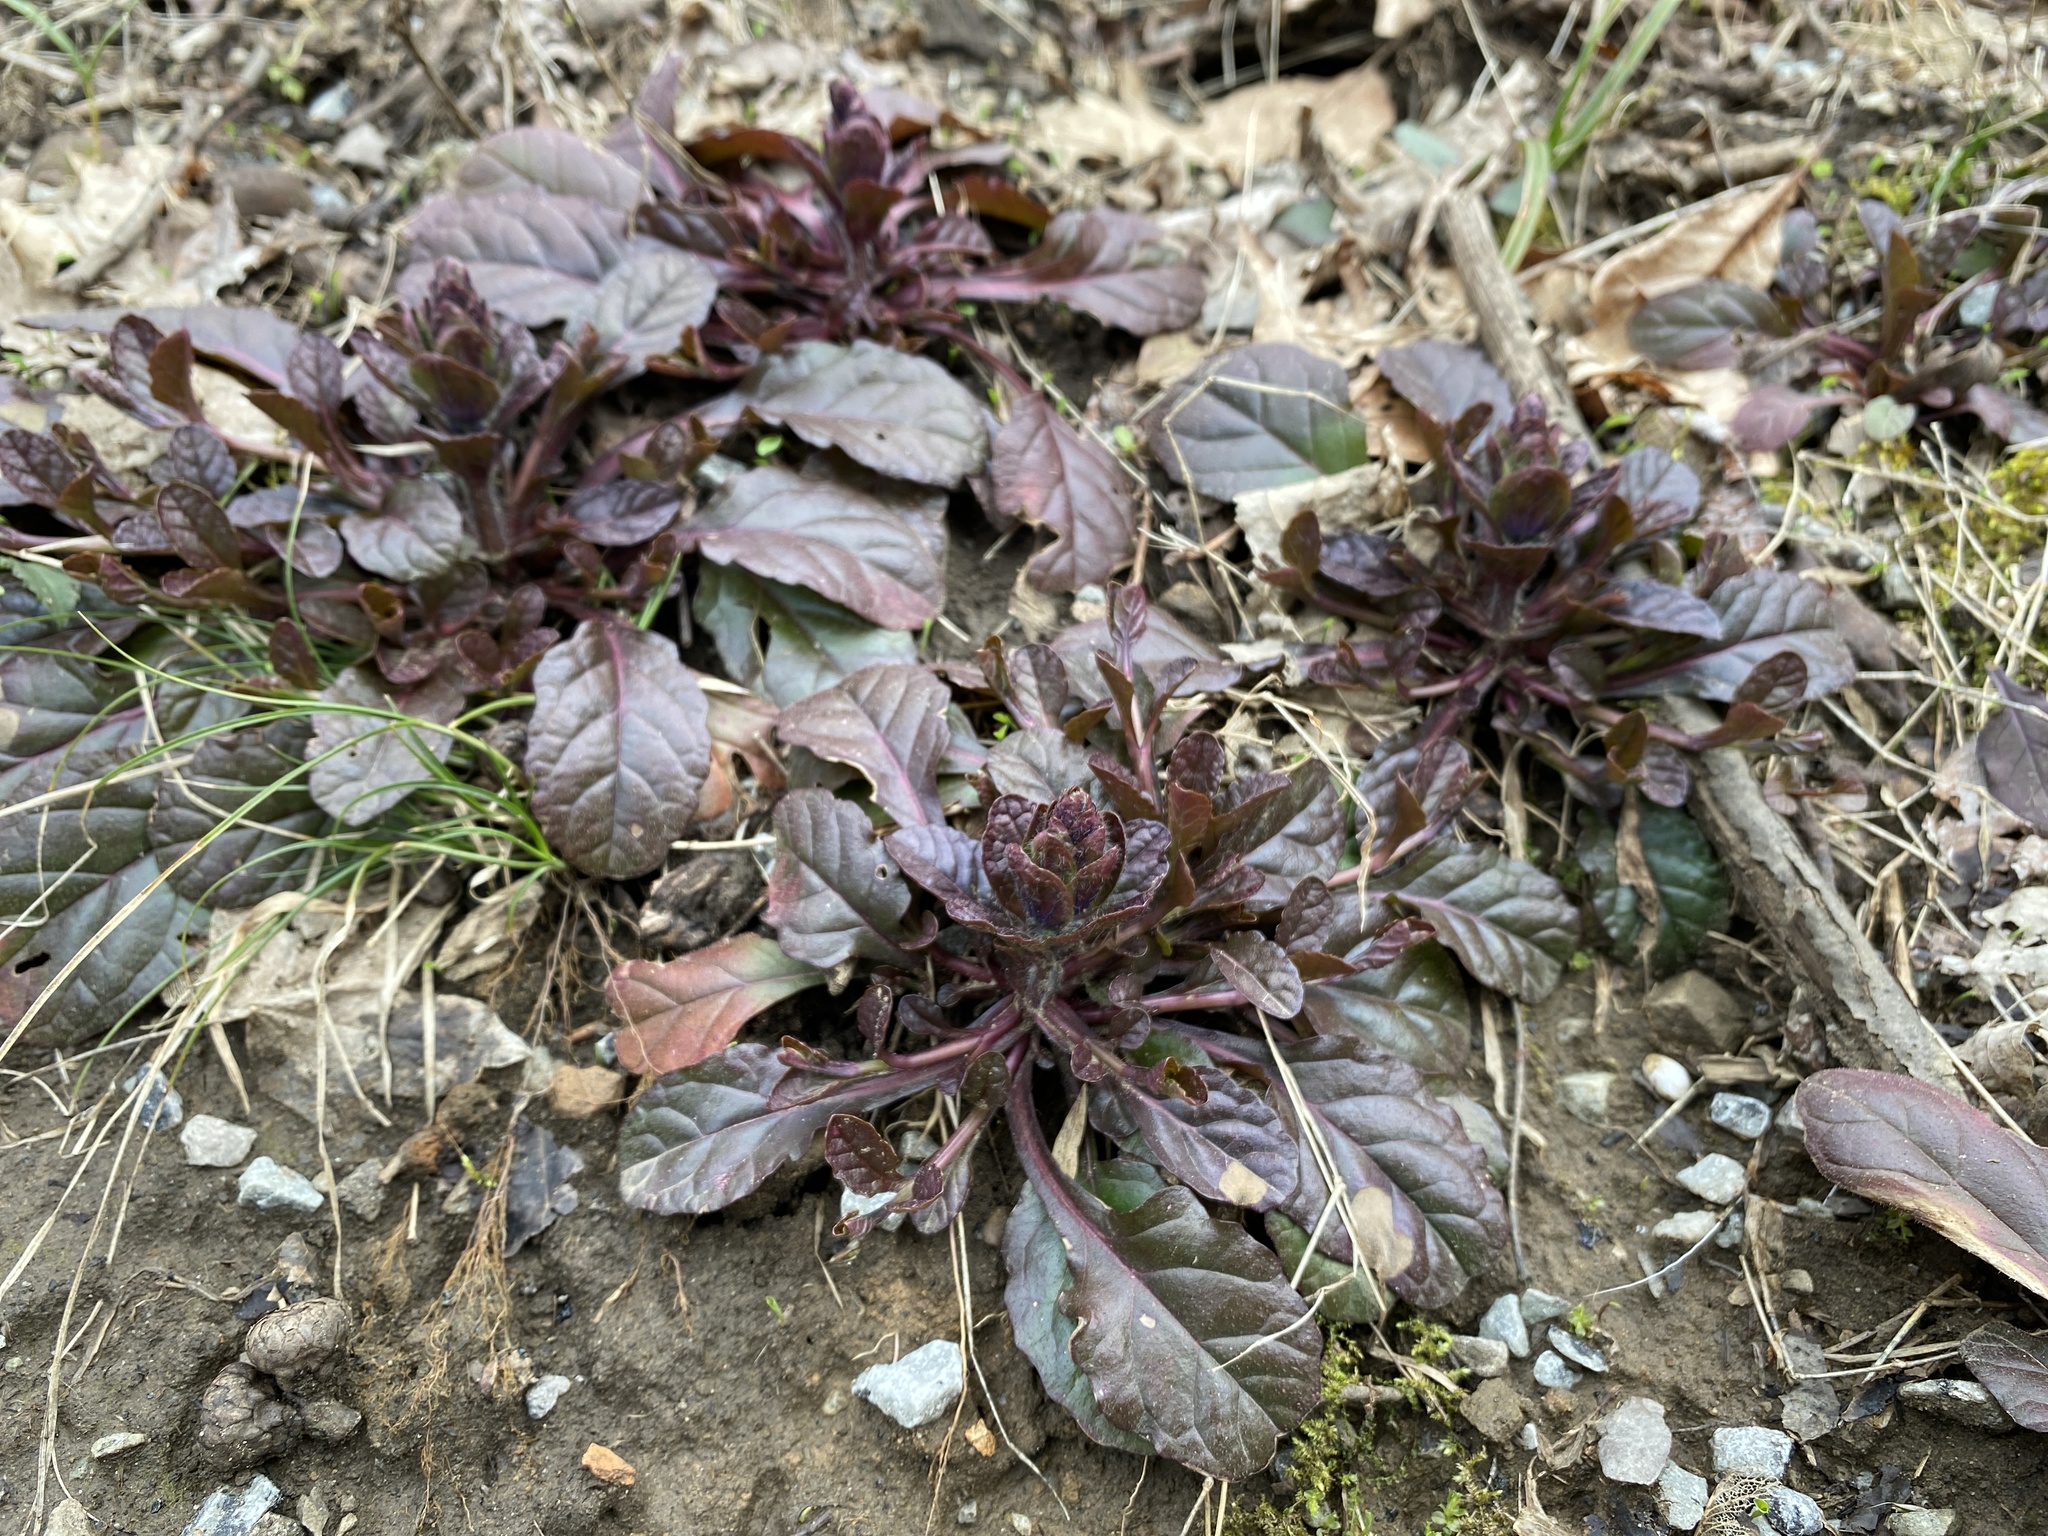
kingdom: Plantae
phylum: Tracheophyta
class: Magnoliopsida
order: Lamiales
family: Lamiaceae
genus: Ajuga
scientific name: Ajuga reptans
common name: Bugle
